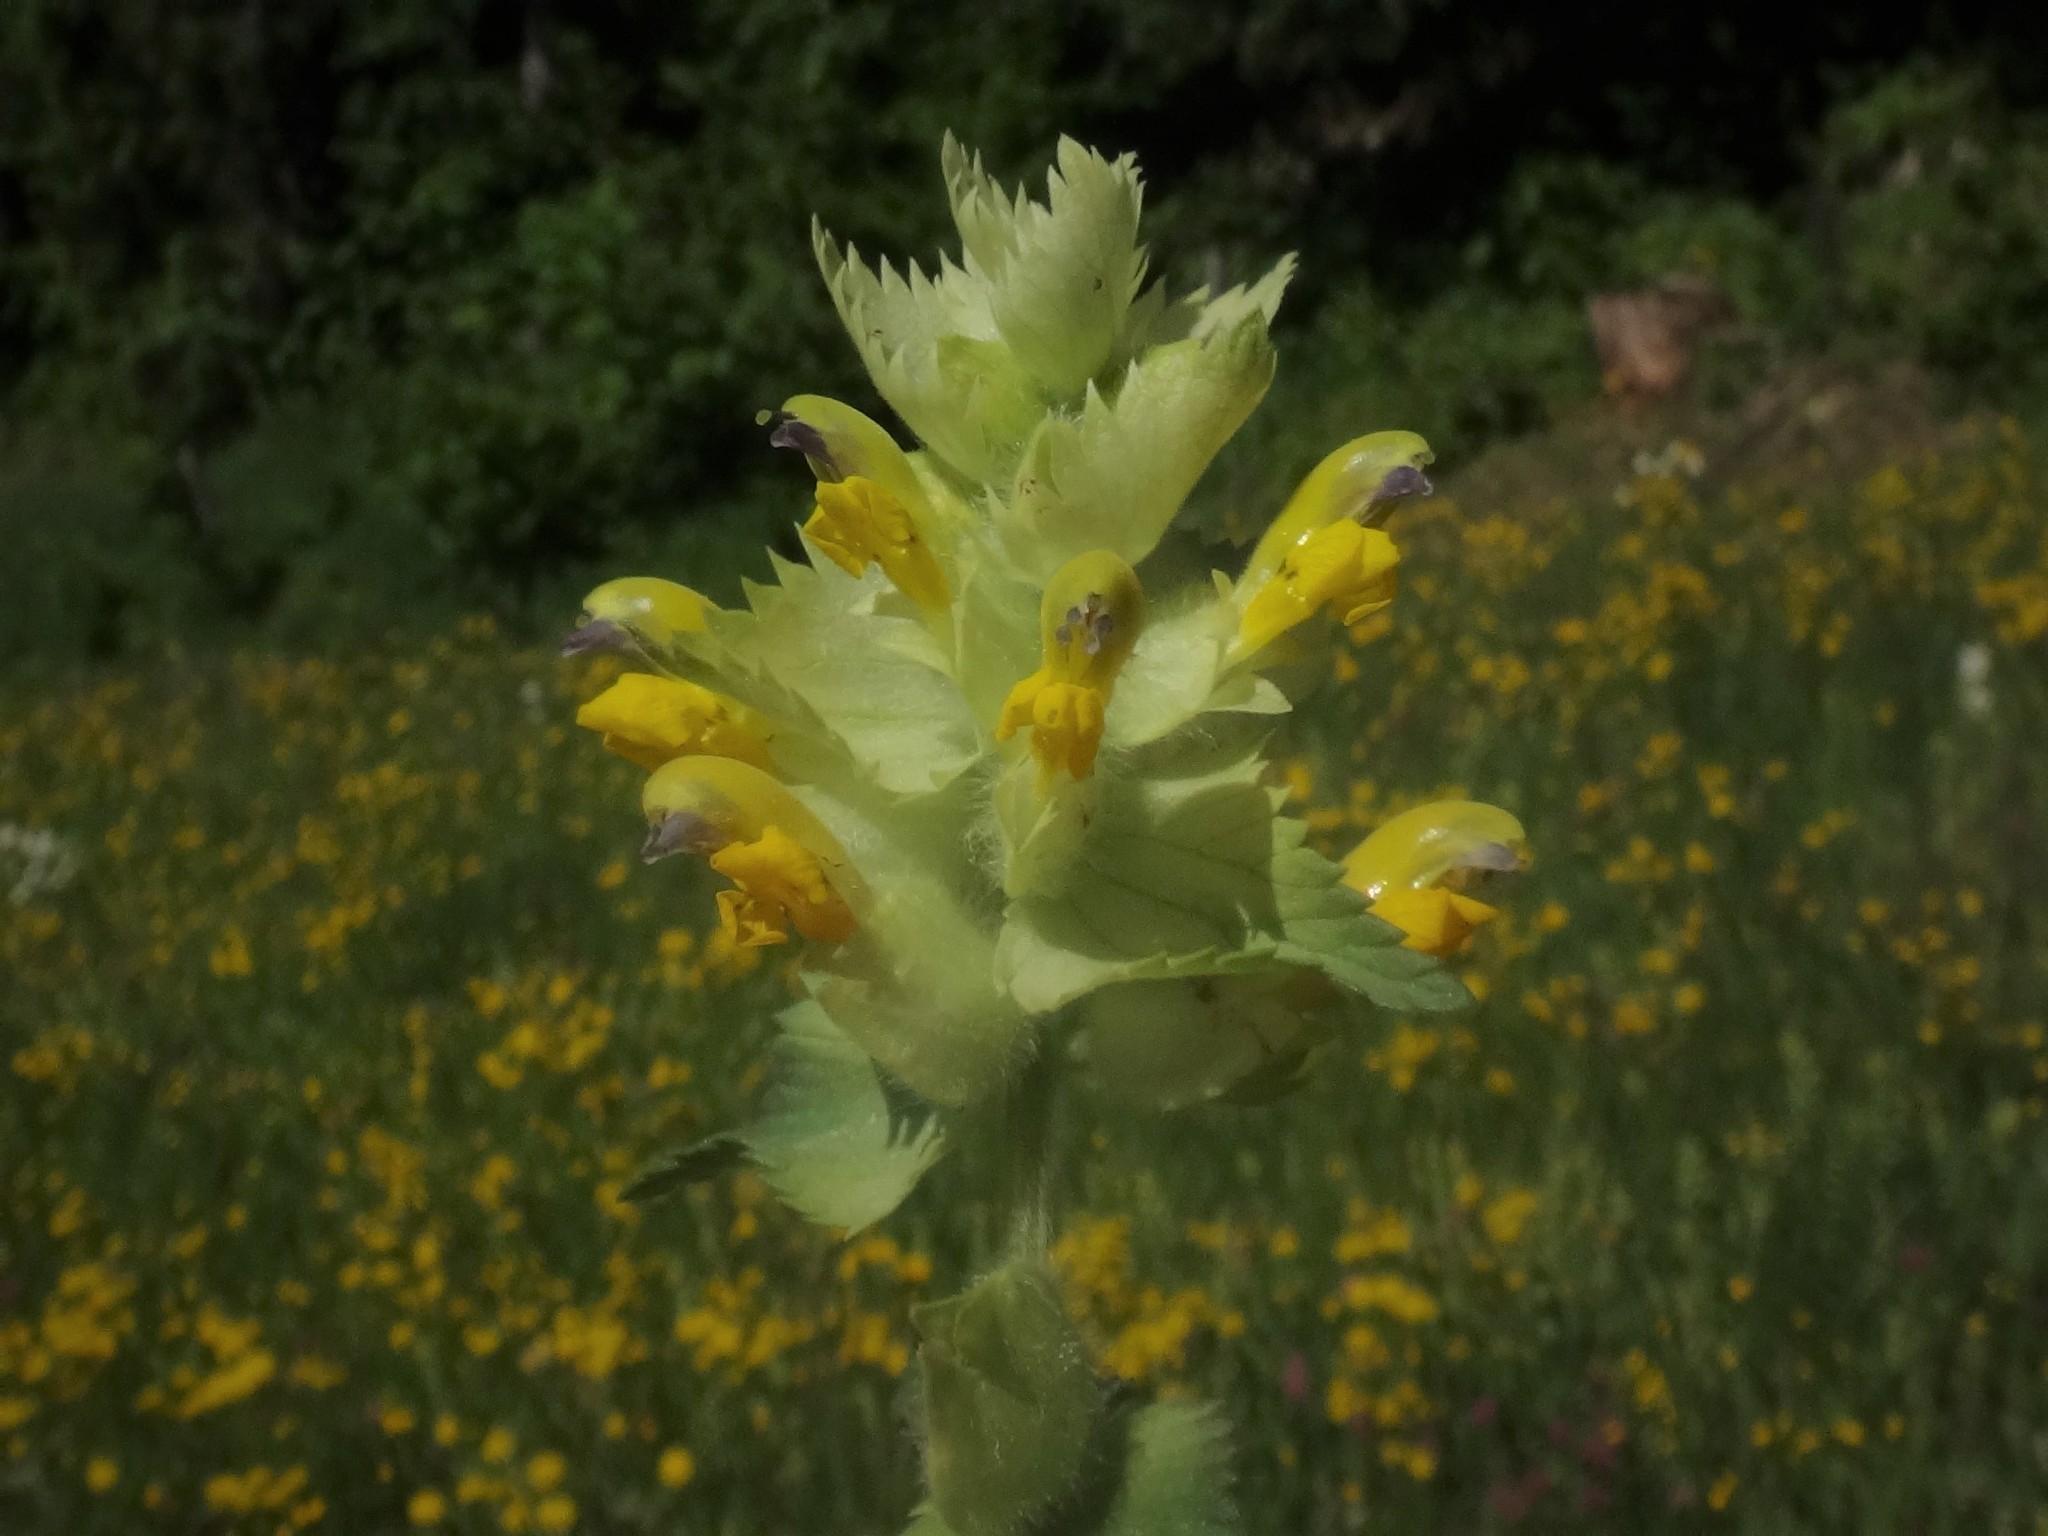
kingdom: Plantae
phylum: Tracheophyta
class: Magnoliopsida
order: Lamiales
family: Orobanchaceae
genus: Rhinanthus
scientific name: Rhinanthus alectorolophus
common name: Greater yellow-rattle
